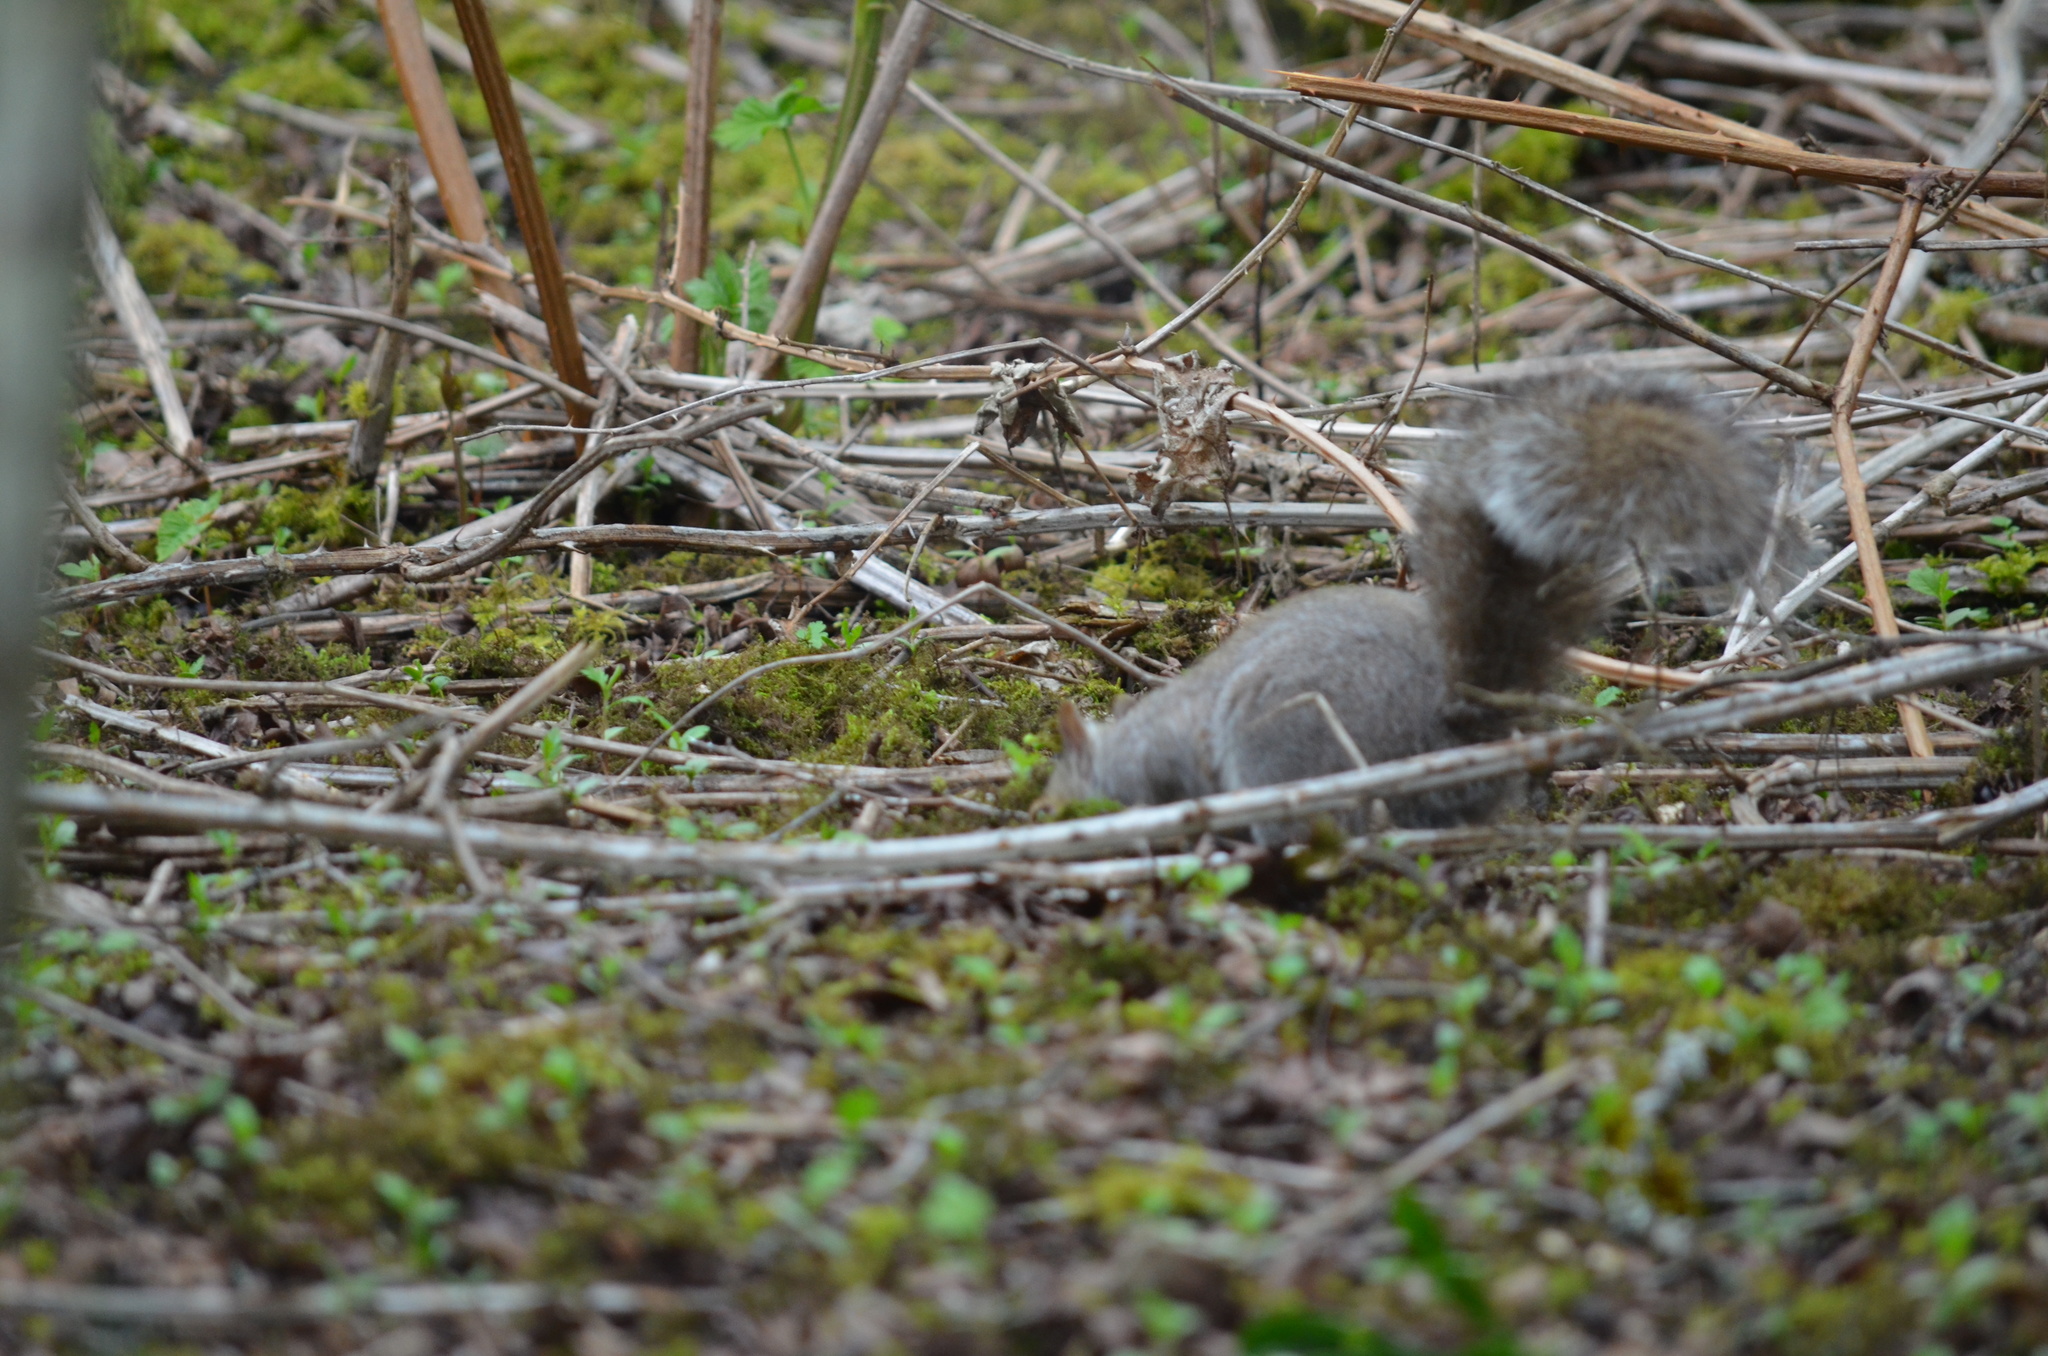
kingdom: Animalia
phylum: Chordata
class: Mammalia
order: Rodentia
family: Sciuridae
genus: Sciurus
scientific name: Sciurus carolinensis
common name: Eastern gray squirrel
